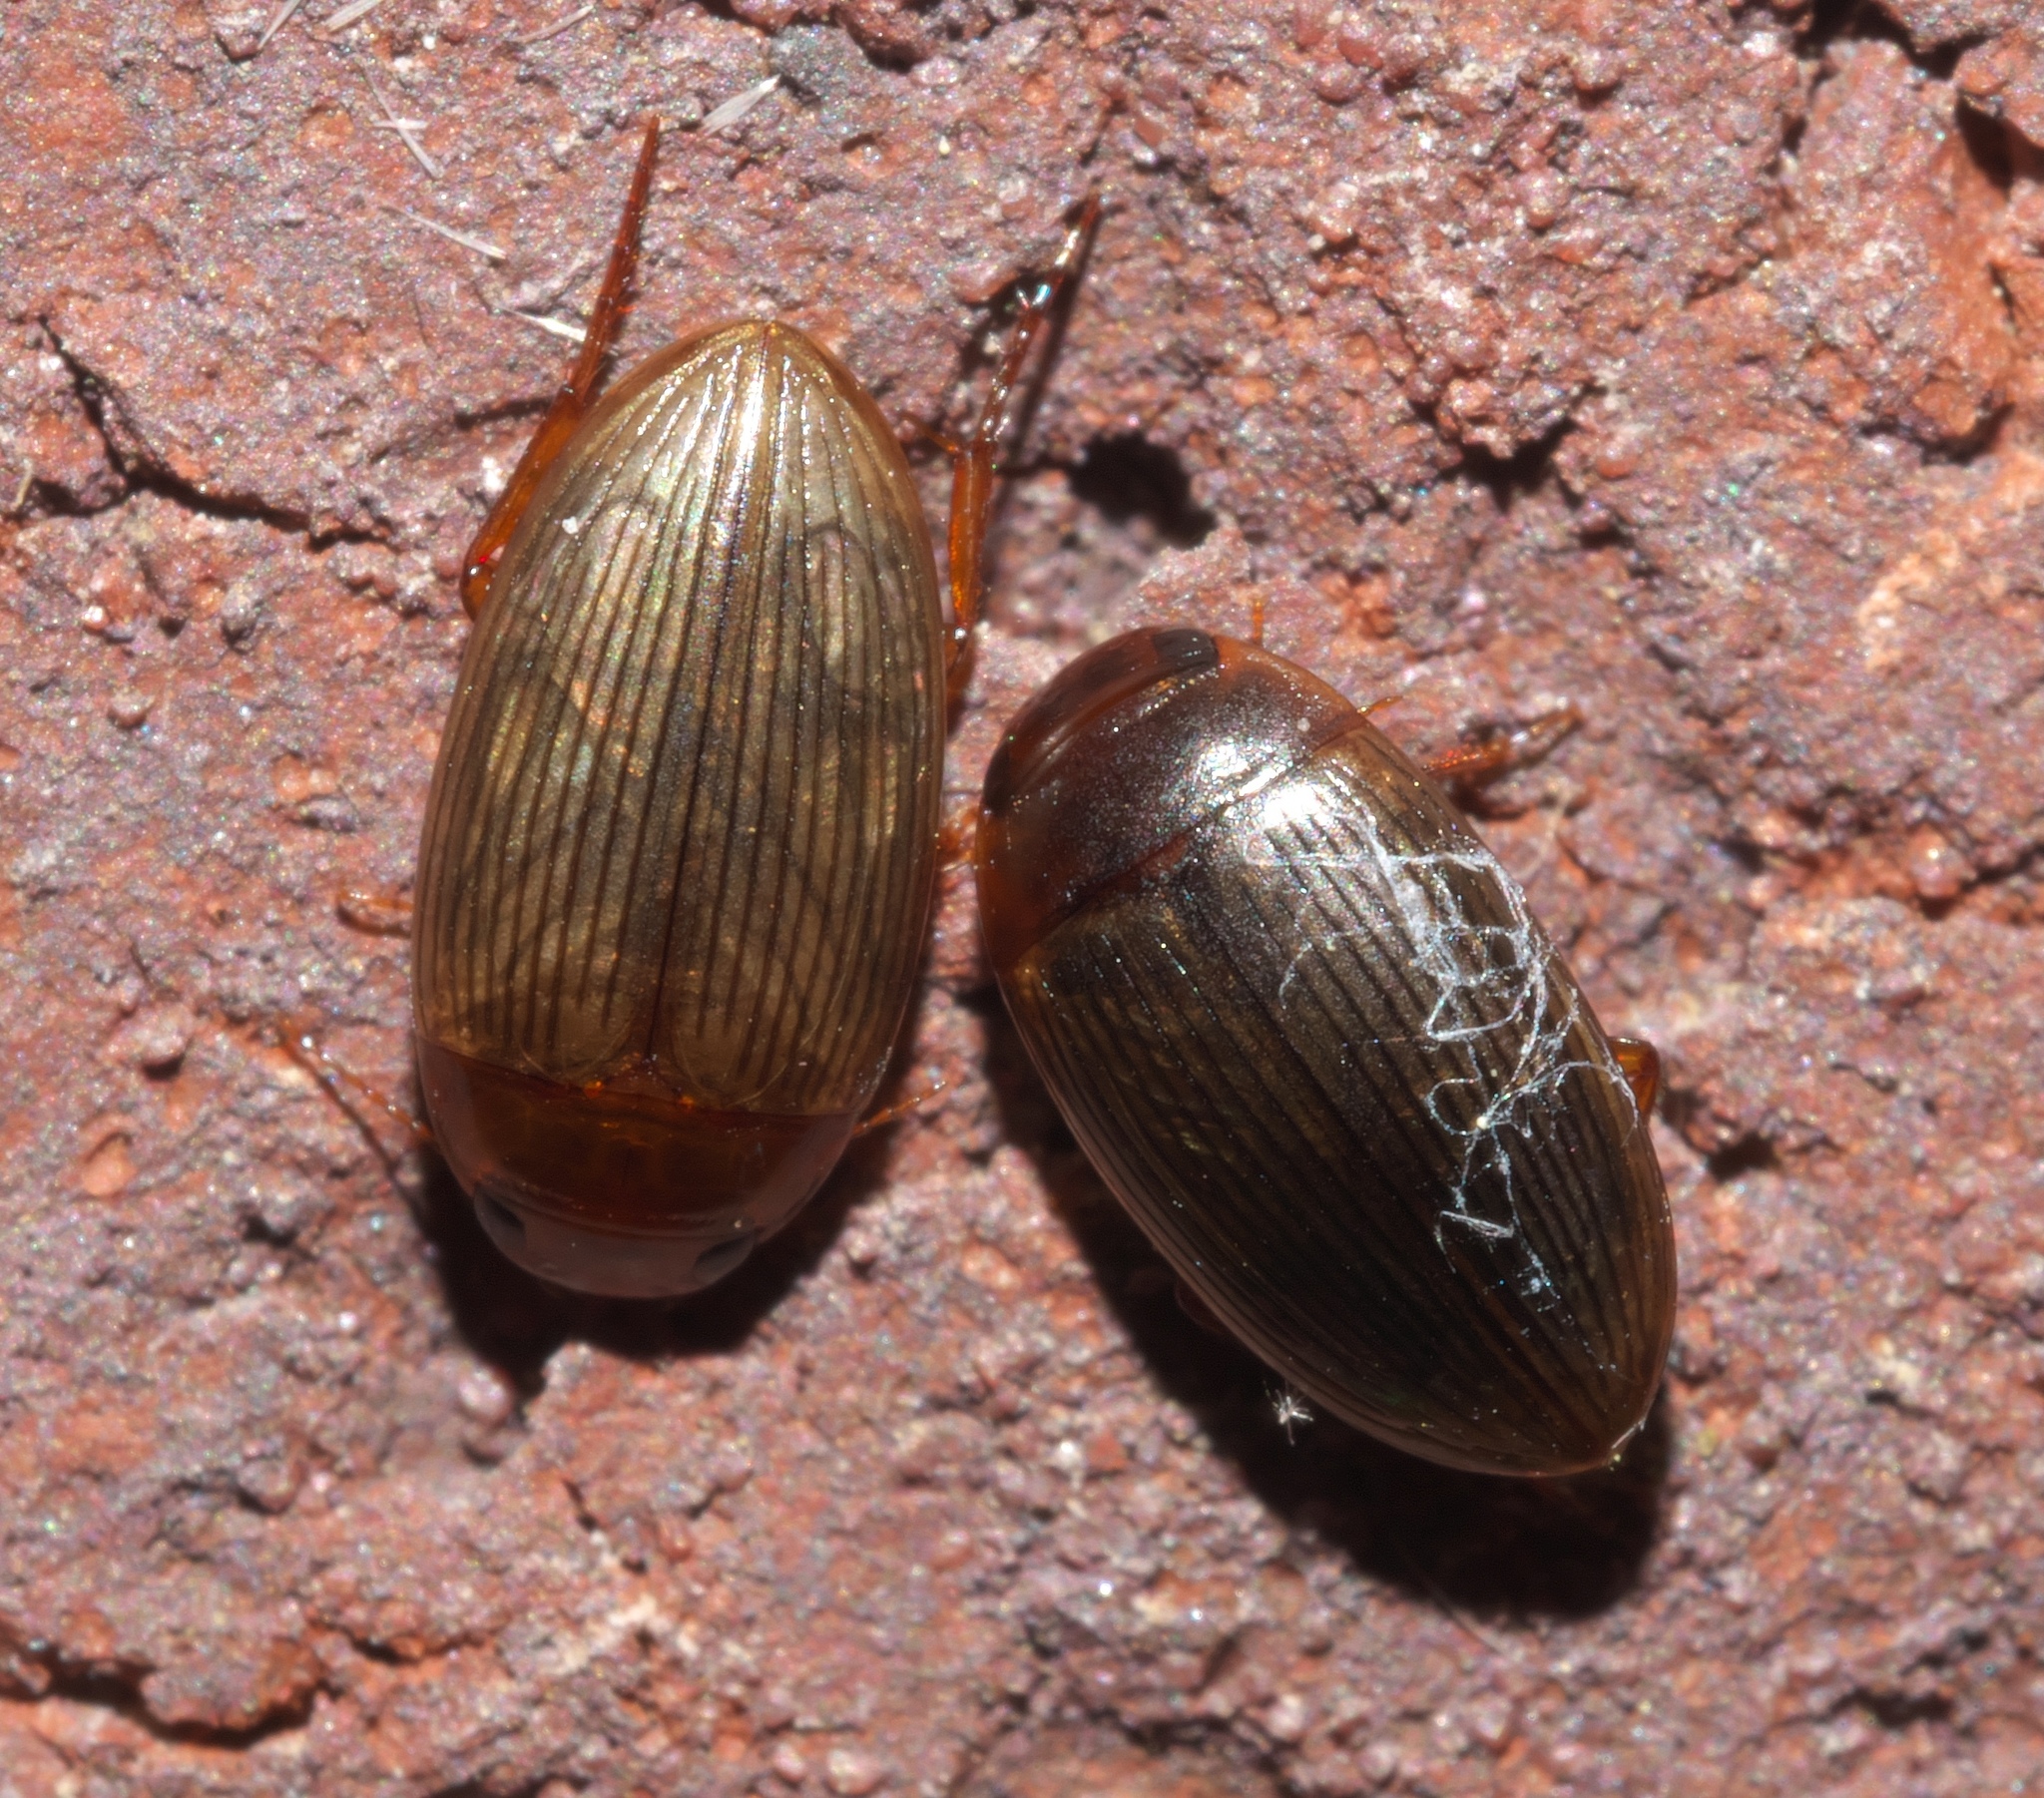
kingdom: Animalia
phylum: Arthropoda
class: Insecta
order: Coleoptera
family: Dytiscidae
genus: Copelatus
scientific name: Copelatus glyphicus
